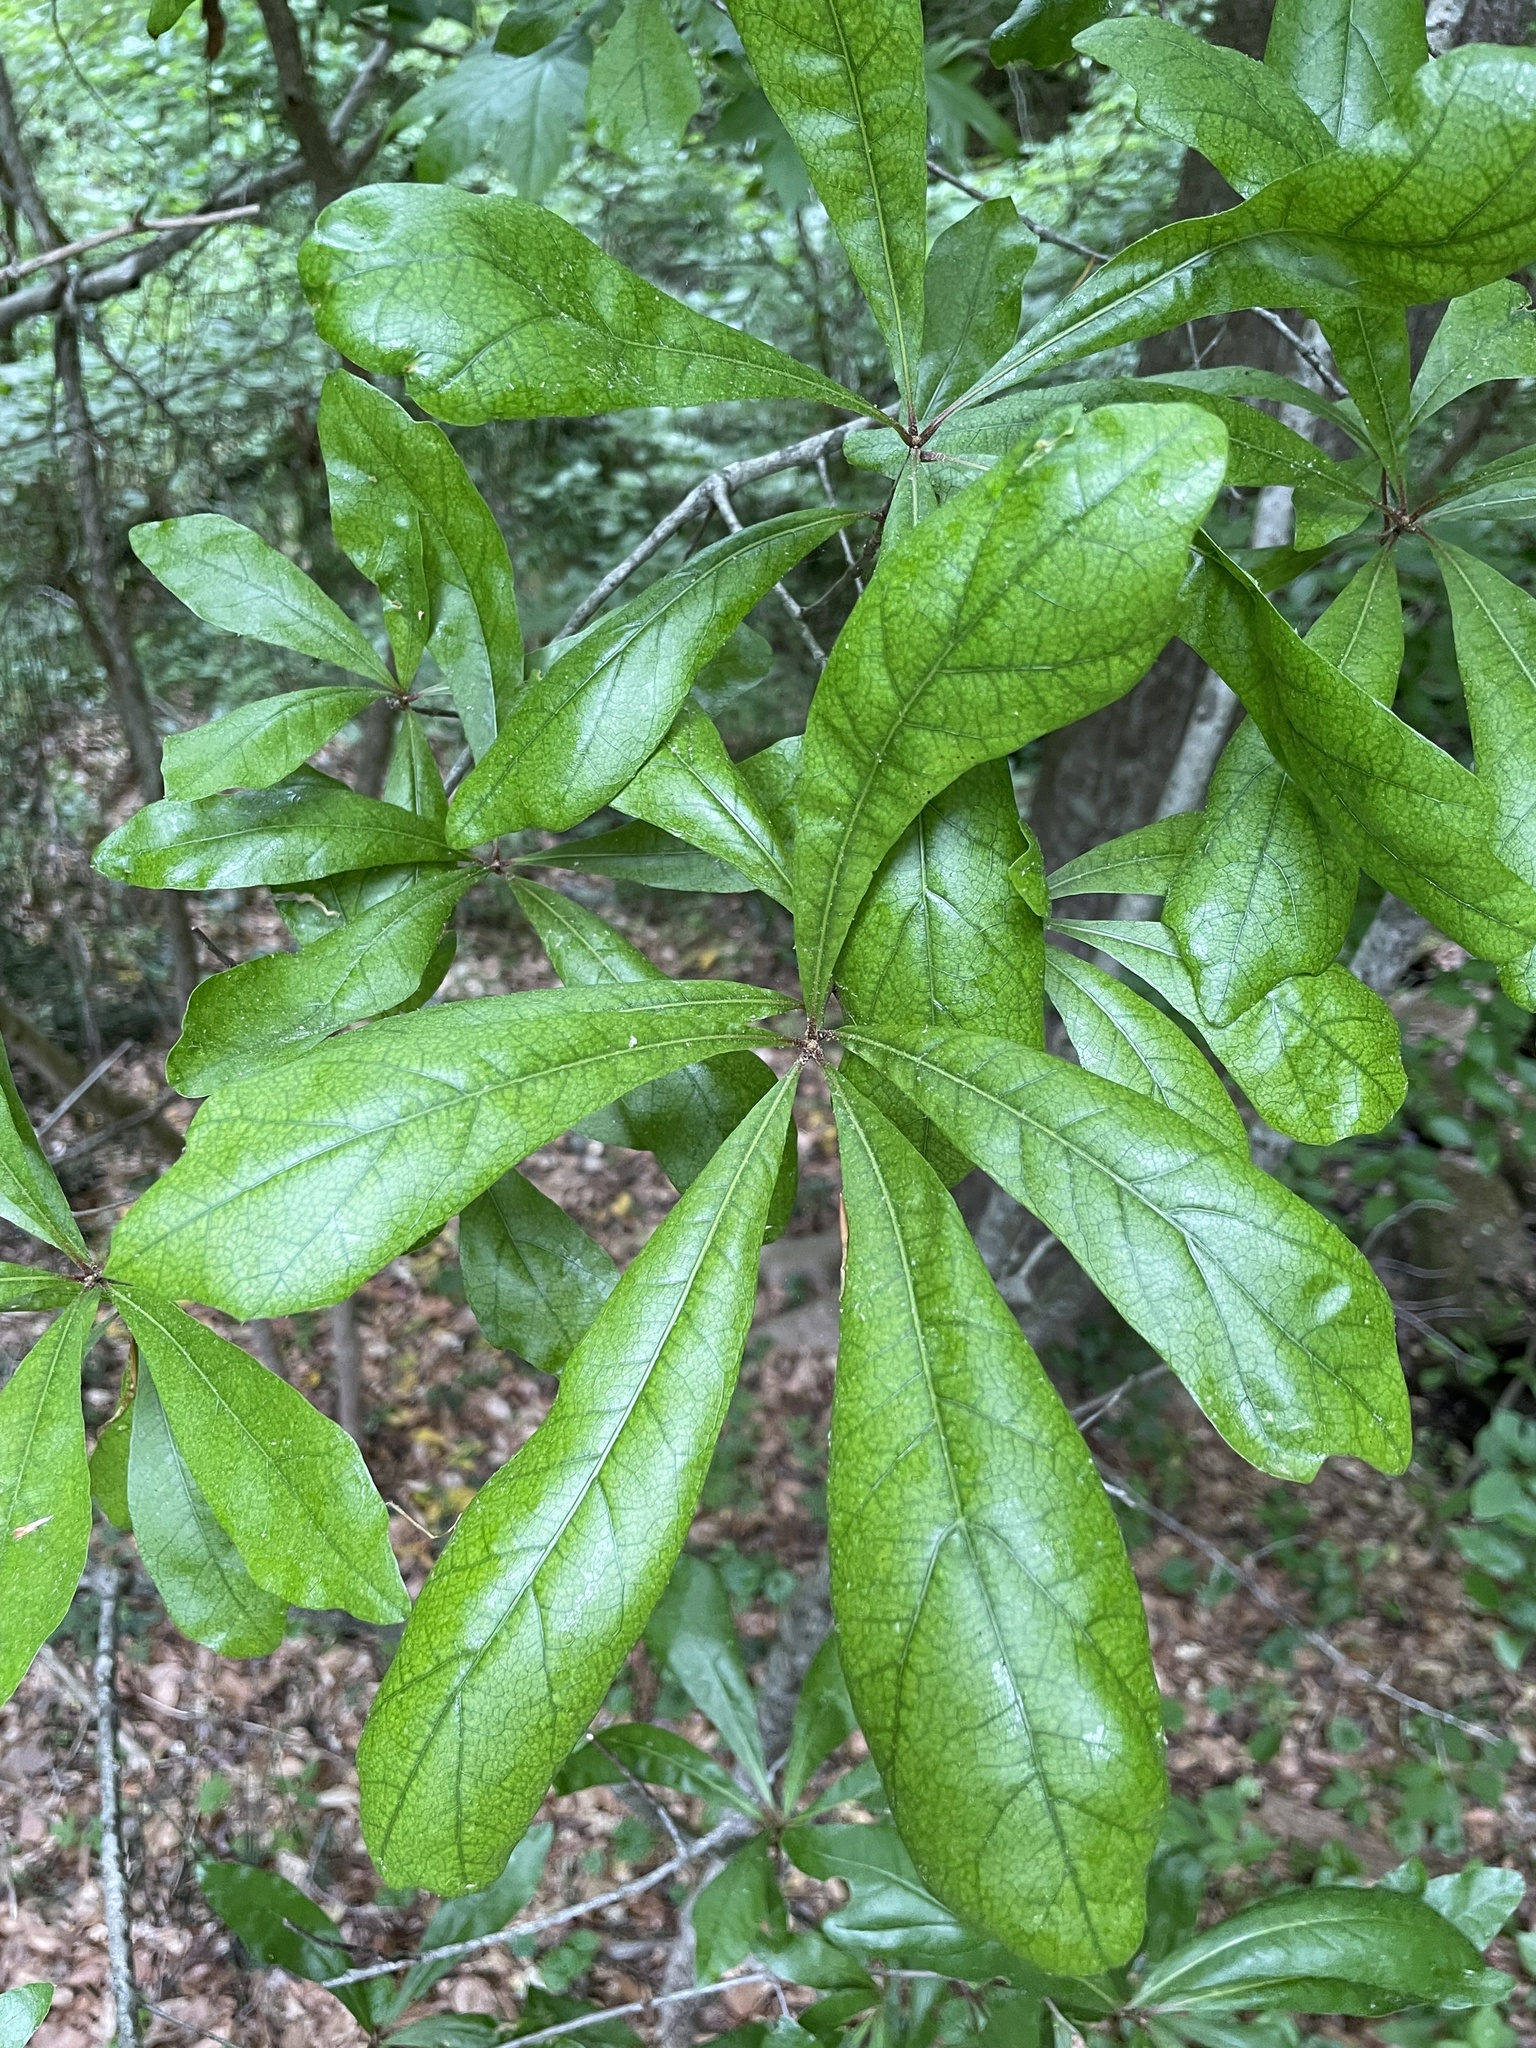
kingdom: Plantae
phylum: Tracheophyta
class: Magnoliopsida
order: Fagales
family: Fagaceae
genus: Quercus
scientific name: Quercus nigra
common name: Water oak
